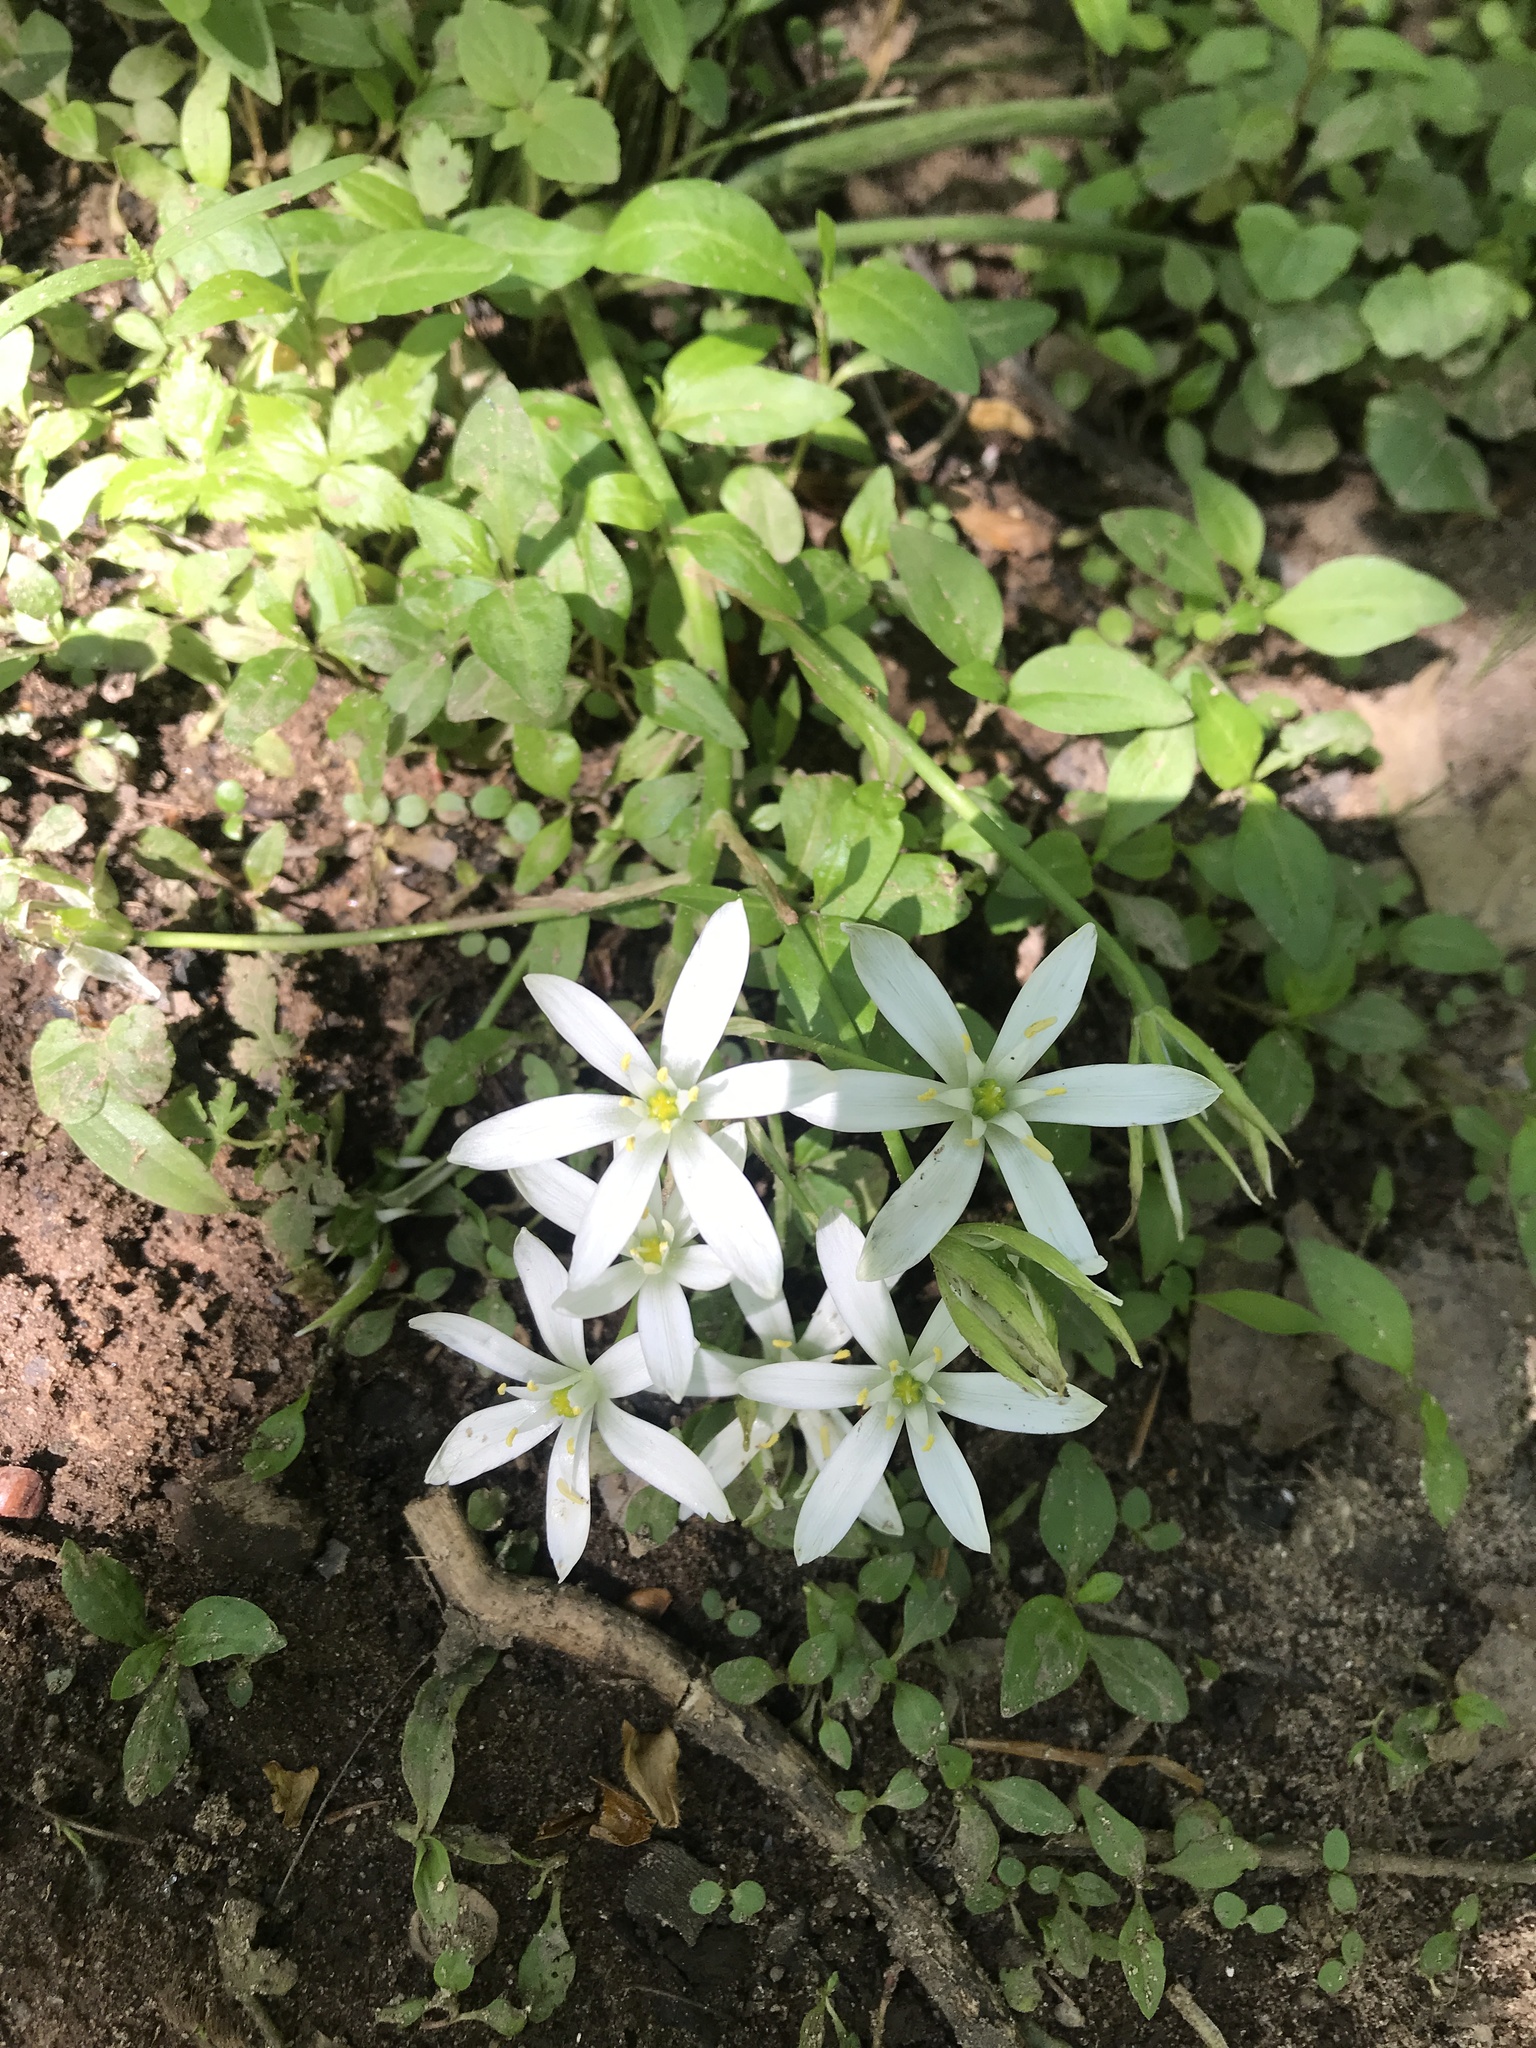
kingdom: Plantae
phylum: Tracheophyta
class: Liliopsida
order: Asparagales
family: Asparagaceae
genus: Ornithogalum
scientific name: Ornithogalum umbellatum
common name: Garden star-of-bethlehem
